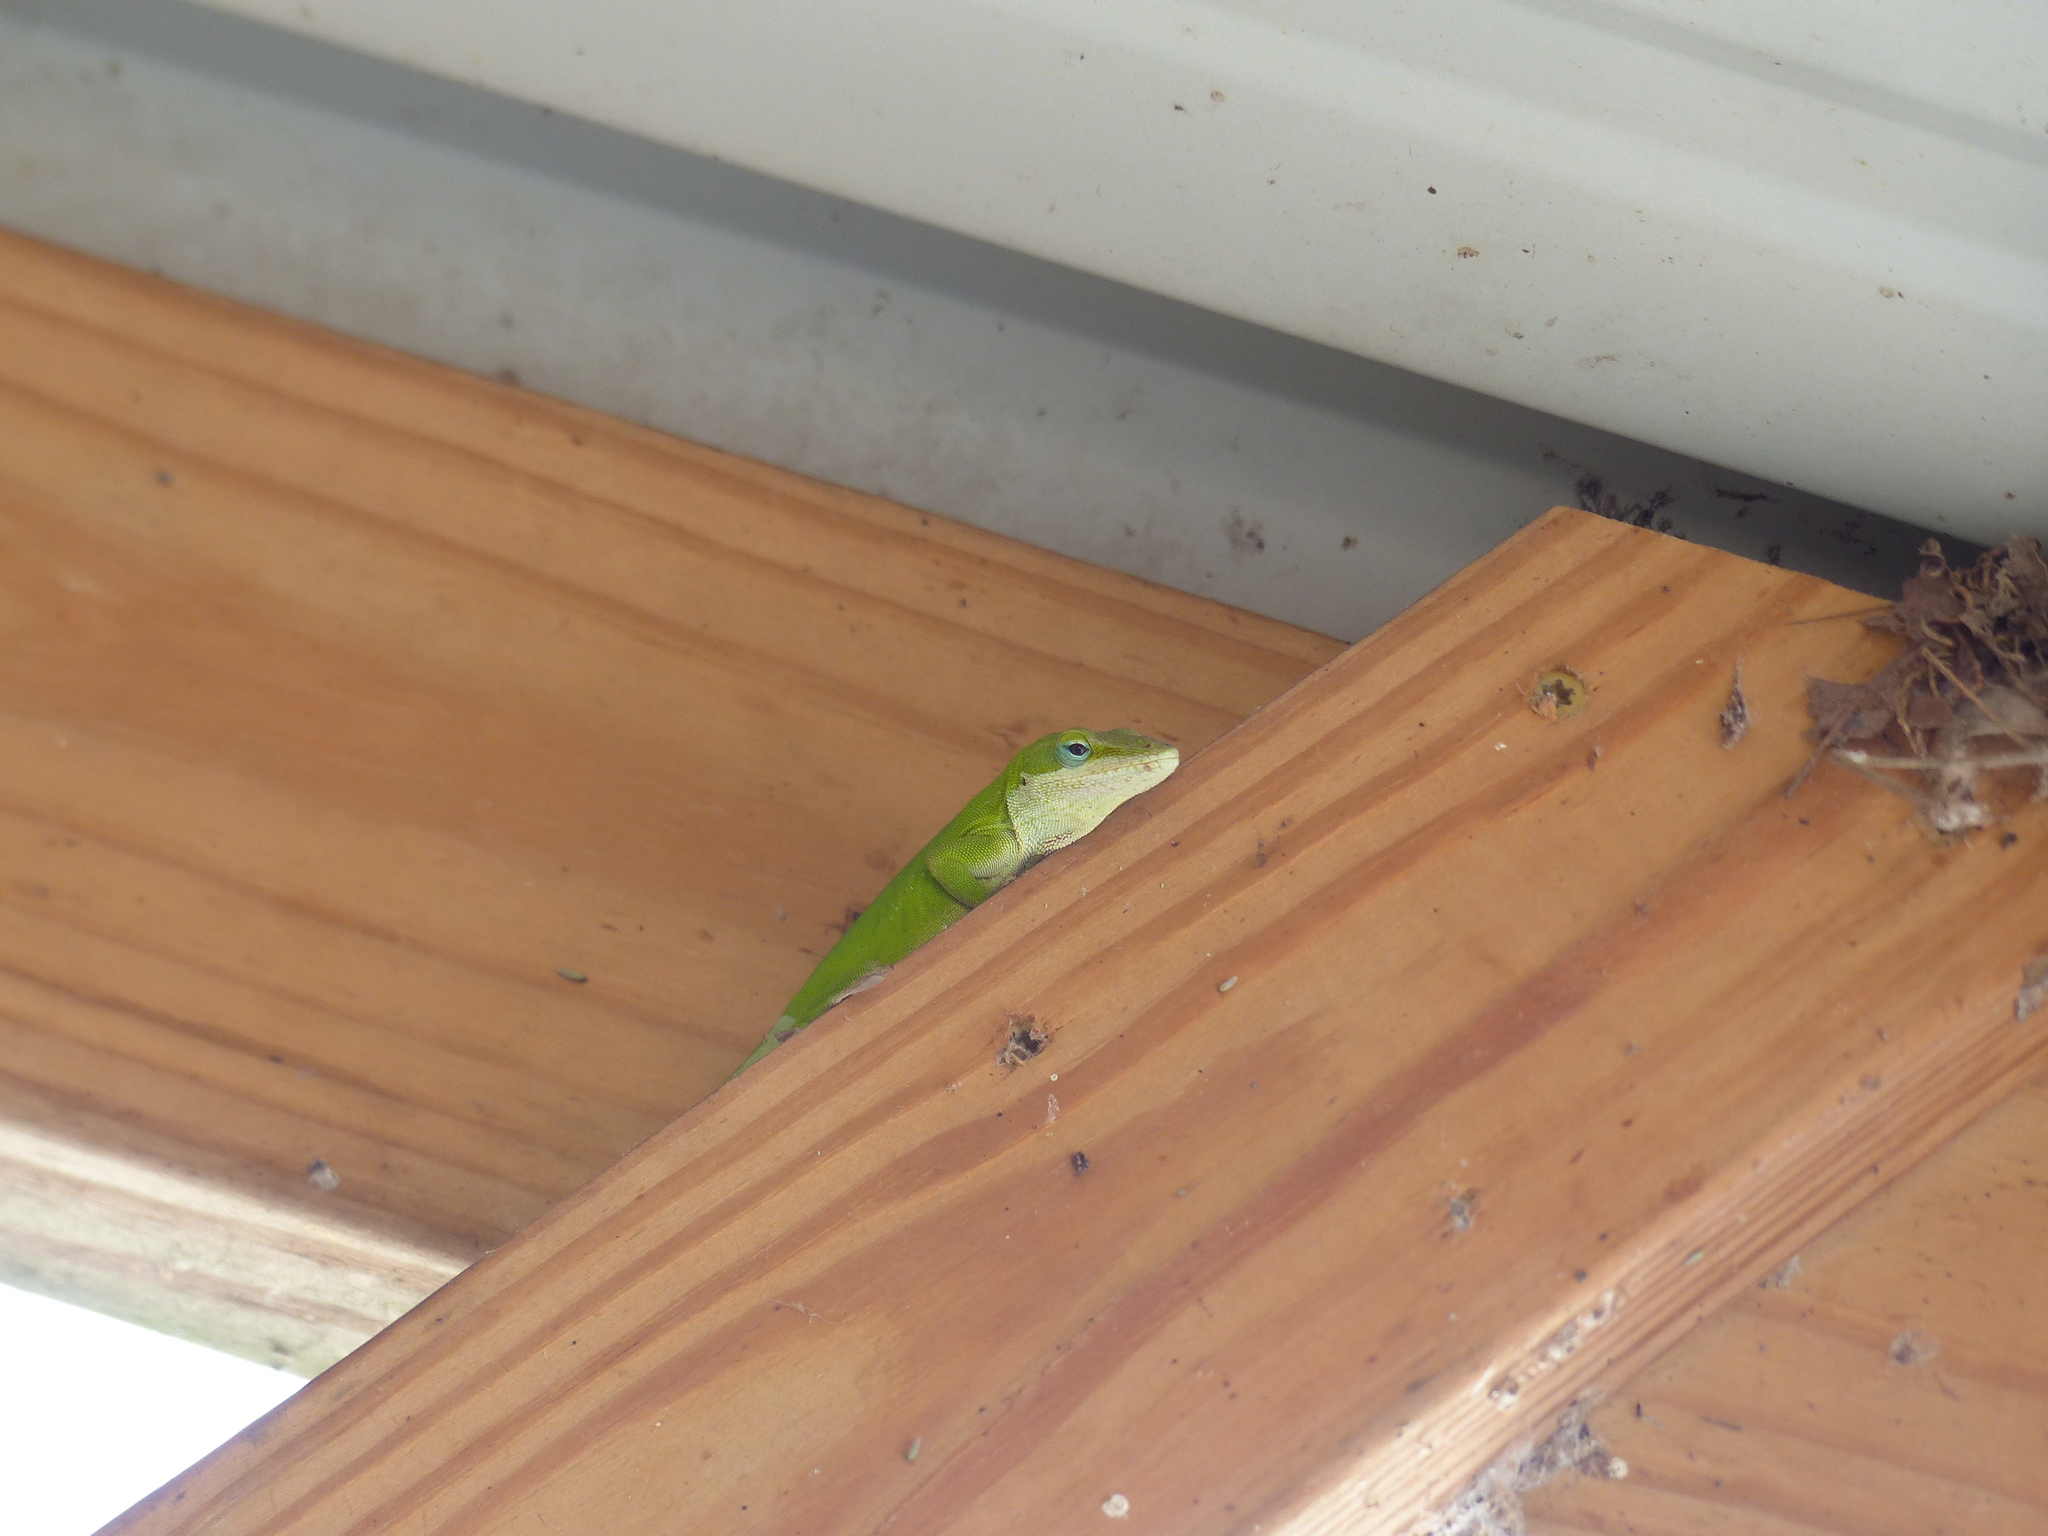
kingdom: Animalia
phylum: Chordata
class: Squamata
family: Dactyloidae
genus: Anolis
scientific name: Anolis carolinensis
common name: Green anole
